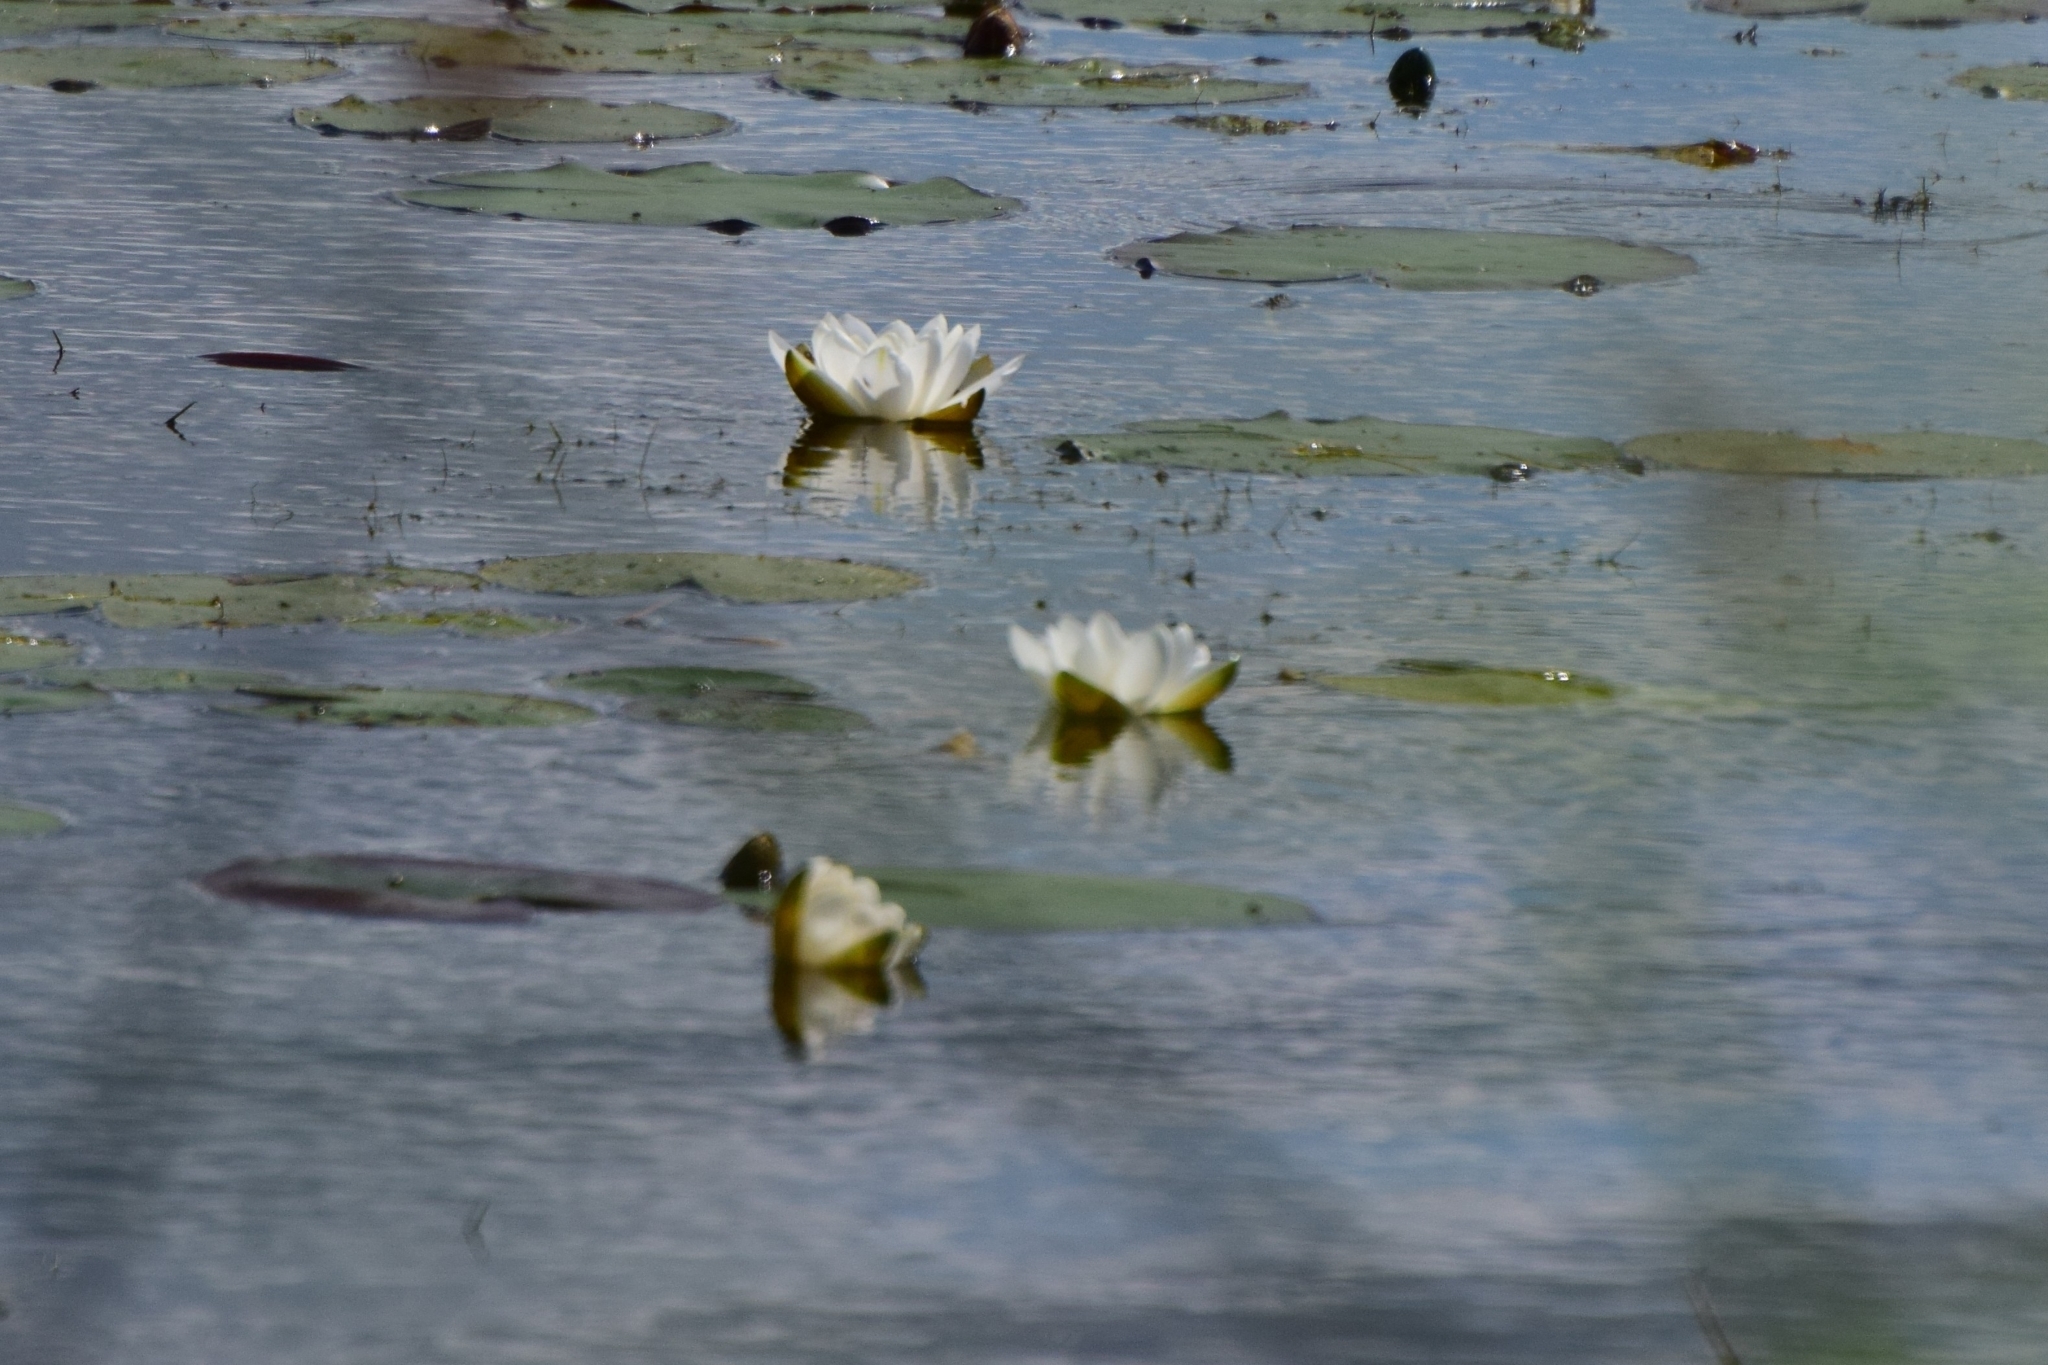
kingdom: Plantae
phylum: Tracheophyta
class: Magnoliopsida
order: Nymphaeales
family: Nymphaeaceae
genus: Nymphaea
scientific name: Nymphaea candida
